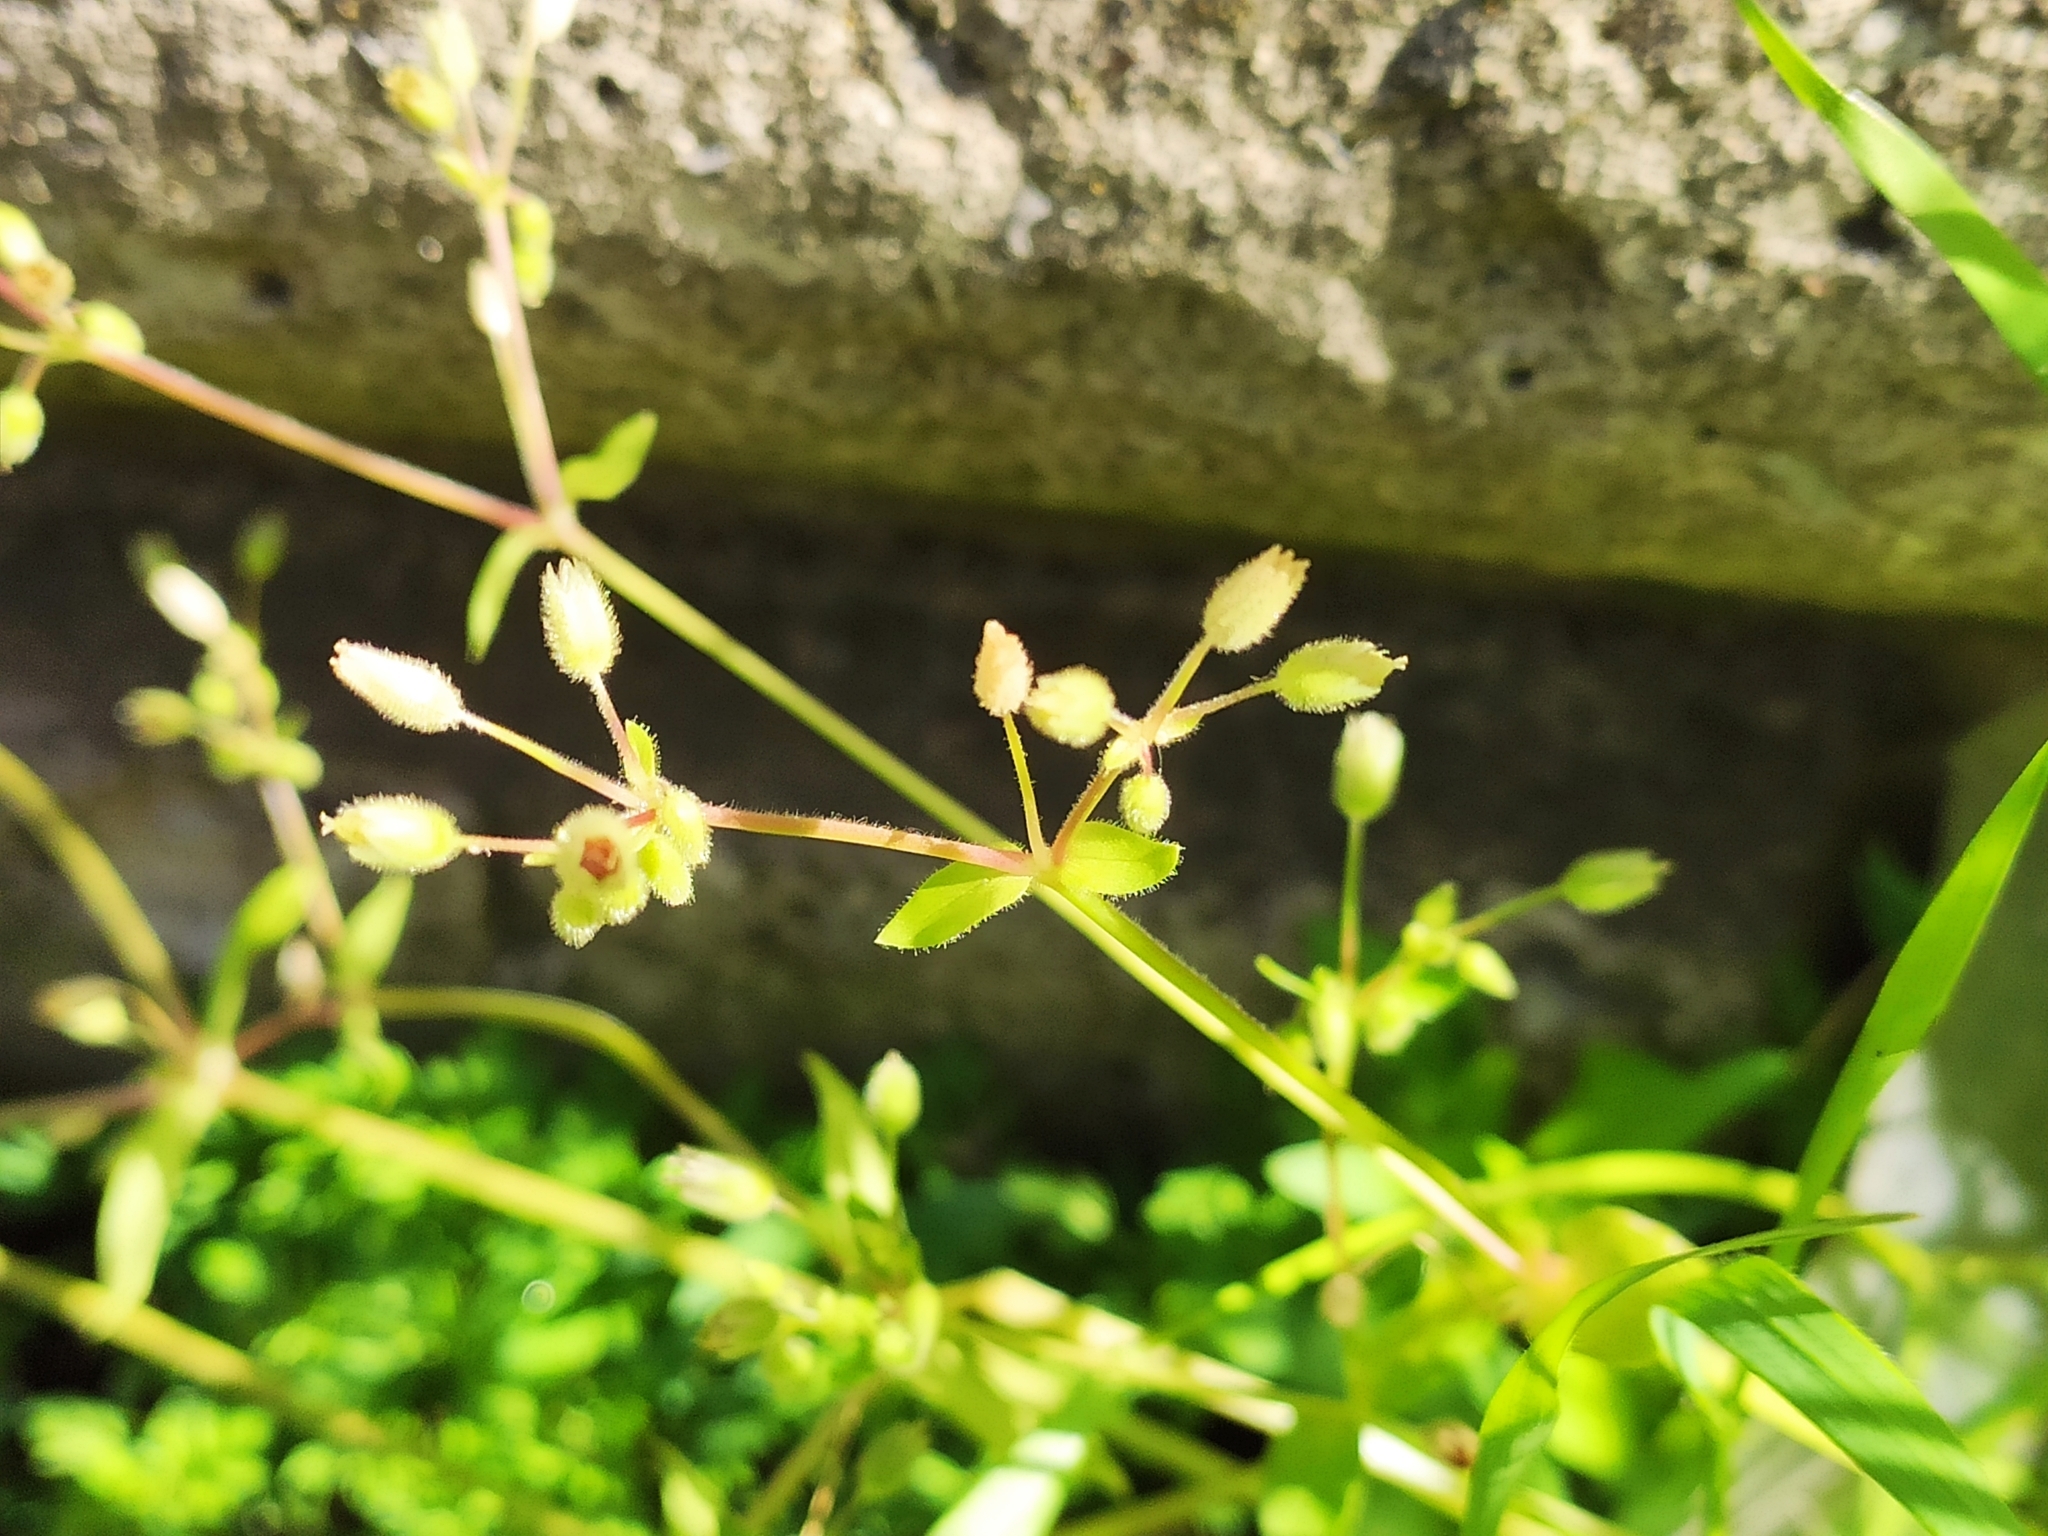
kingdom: Plantae
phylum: Tracheophyta
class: Magnoliopsida
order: Caryophyllales
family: Caryophyllaceae
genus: Stellaria
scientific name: Stellaria media
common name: Common chickweed
